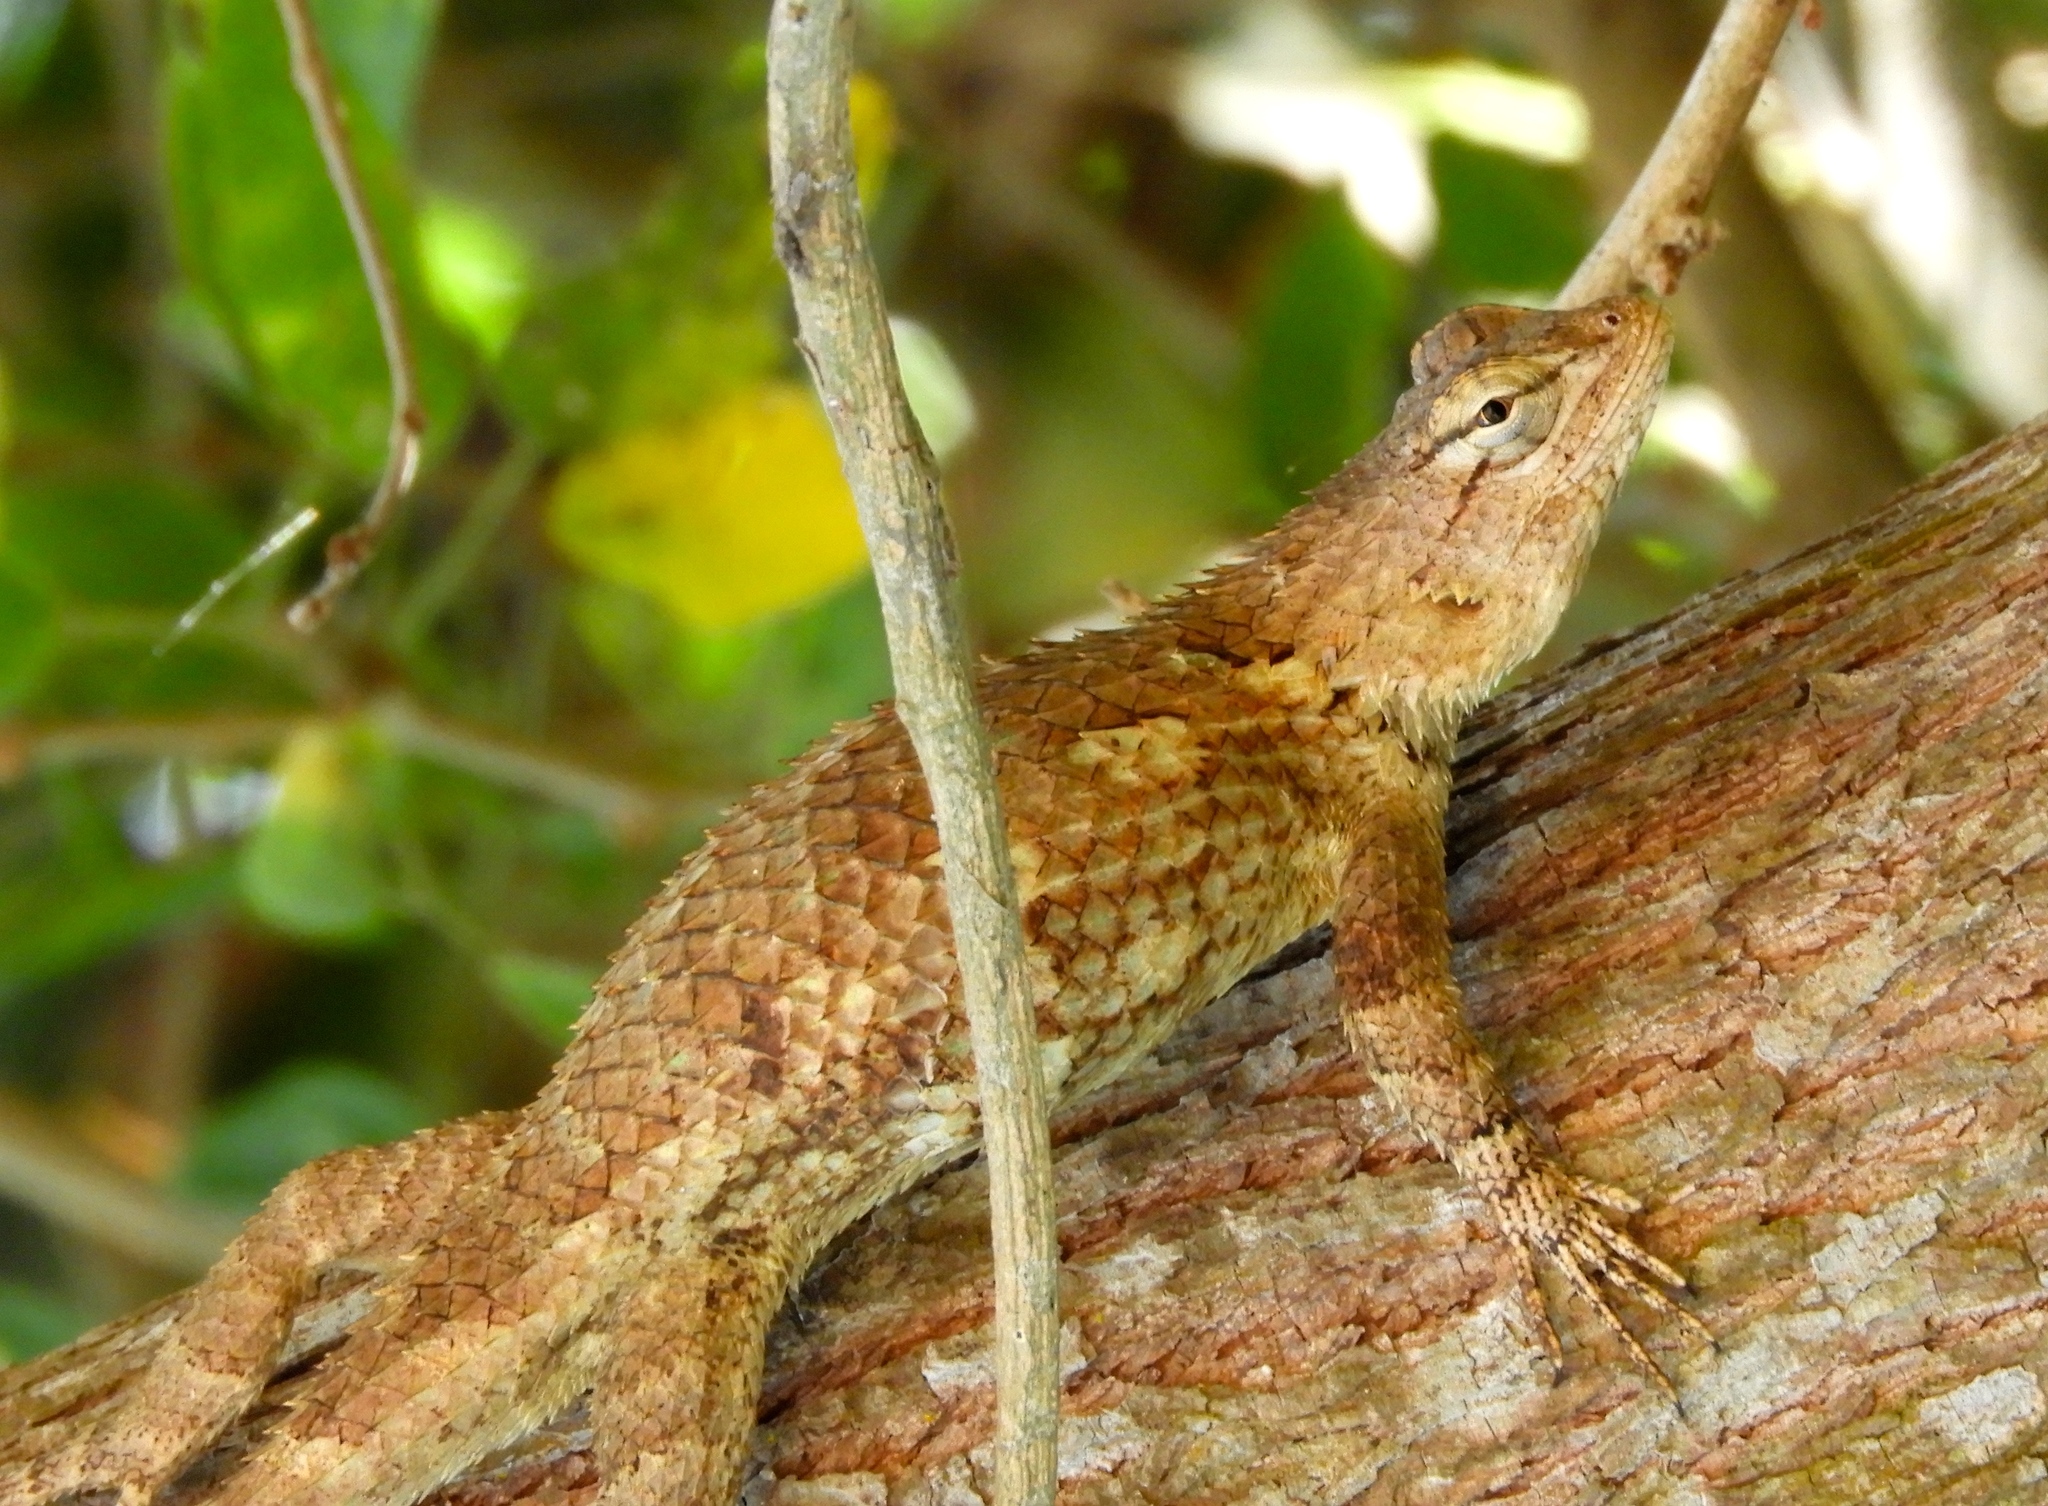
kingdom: Animalia
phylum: Chordata
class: Squamata
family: Phrynosomatidae
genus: Sceloporus
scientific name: Sceloporus clarkii
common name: Clark's spiny lizard
